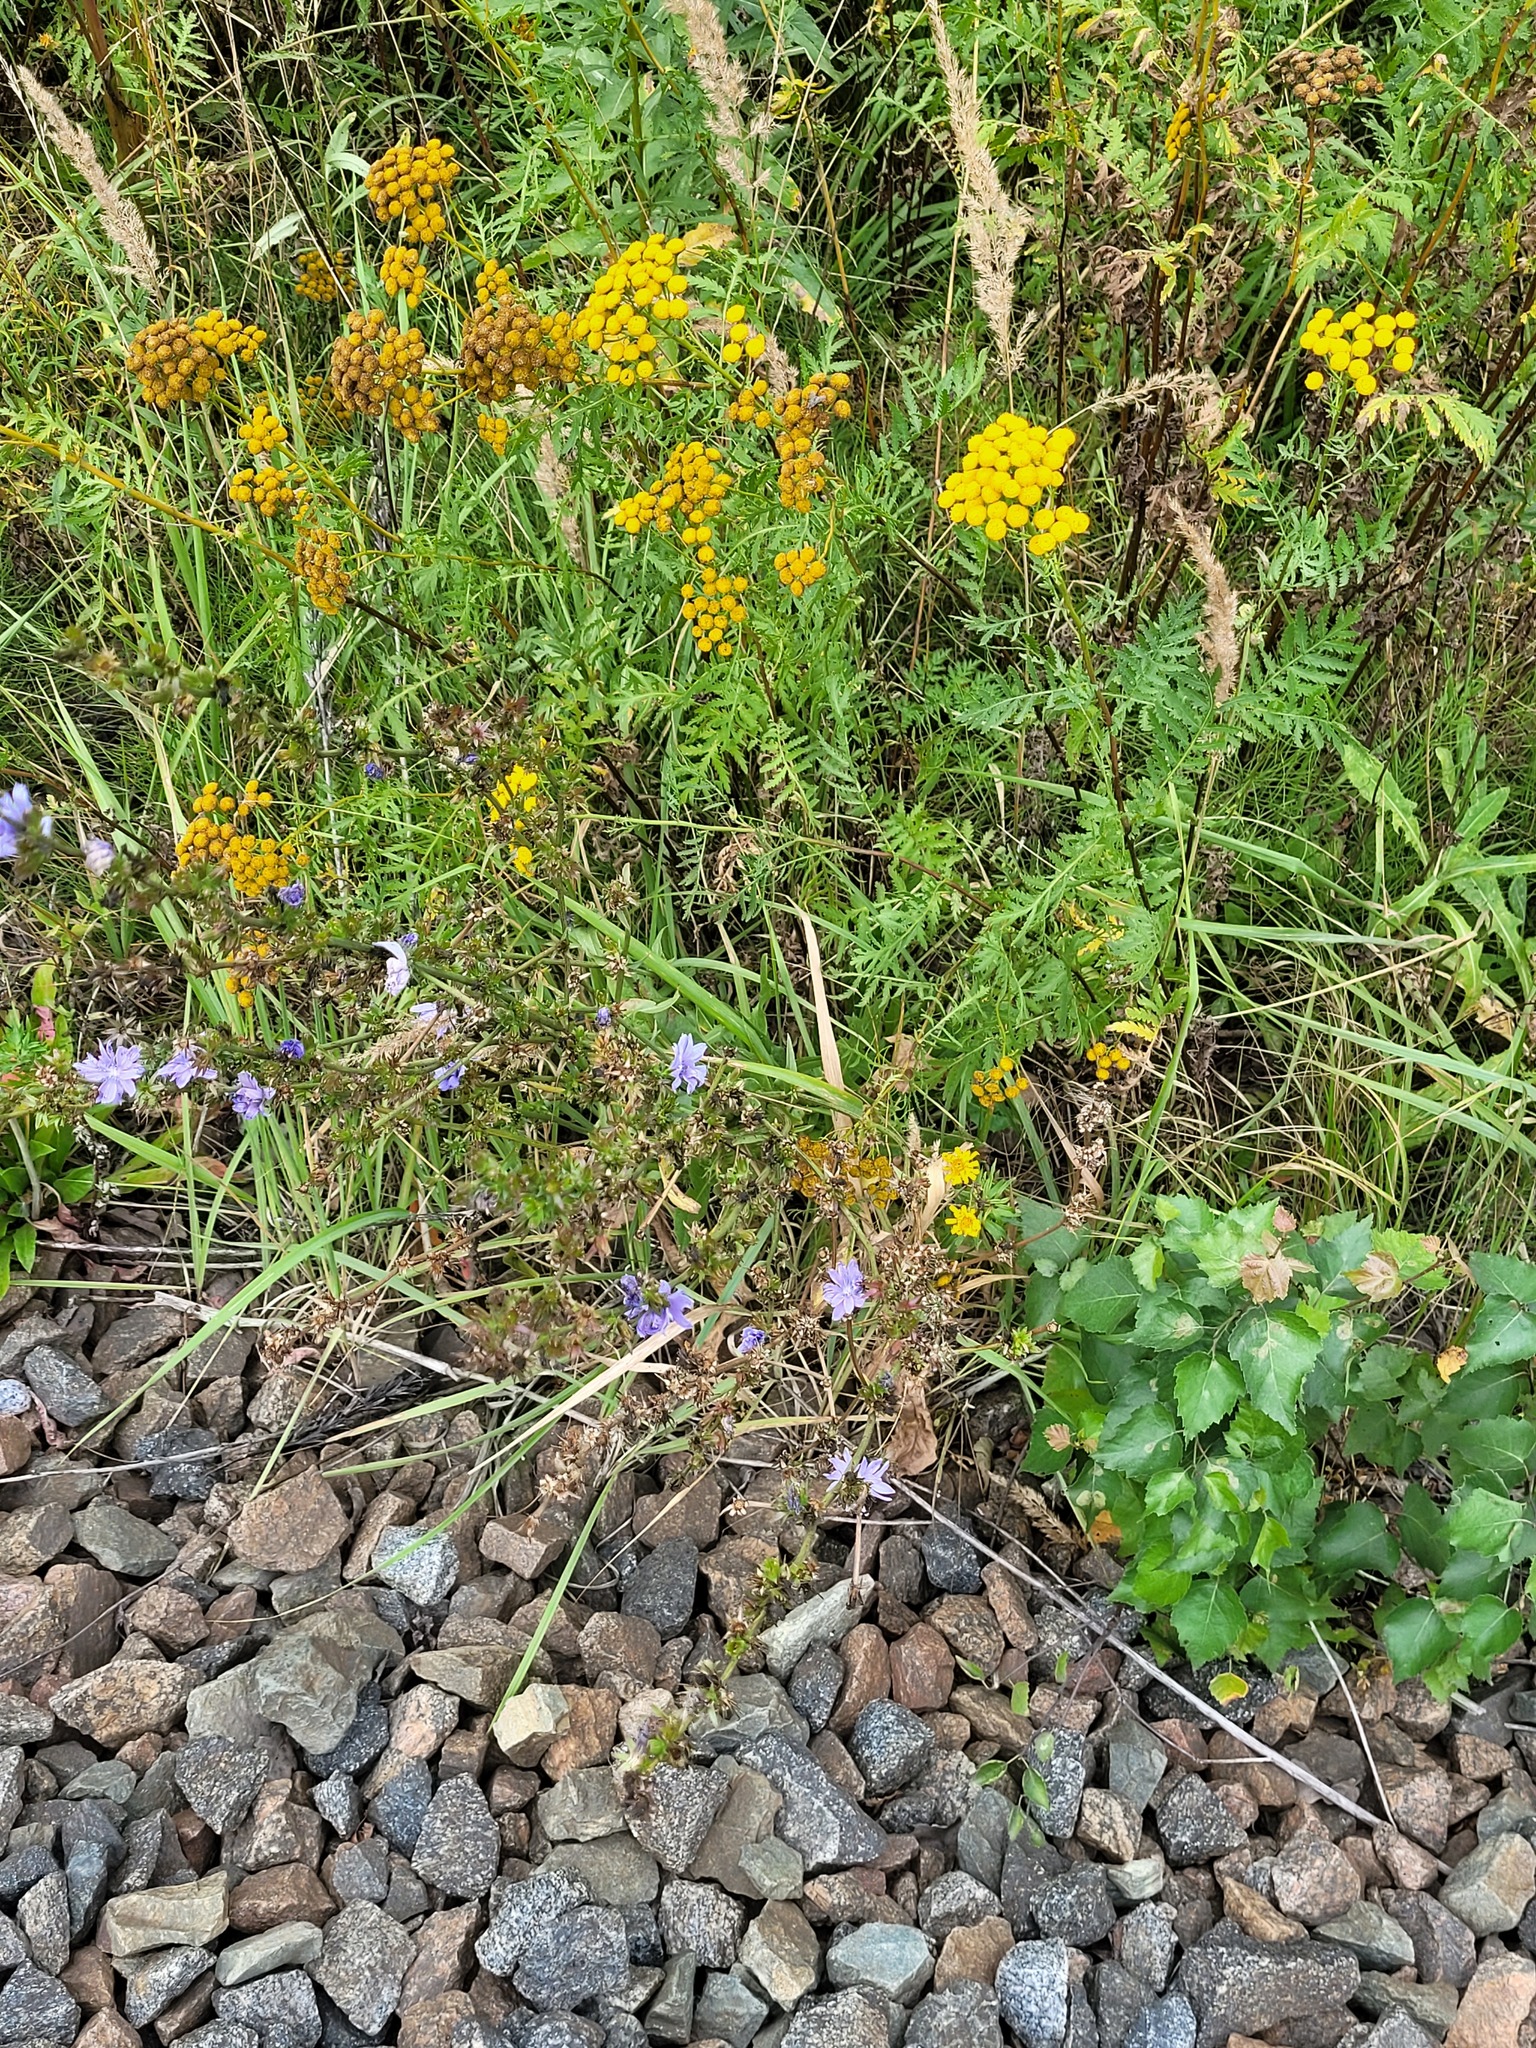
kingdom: Plantae
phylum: Tracheophyta
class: Magnoliopsida
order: Asterales
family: Asteraceae
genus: Cichorium
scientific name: Cichorium intybus
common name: Chicory
